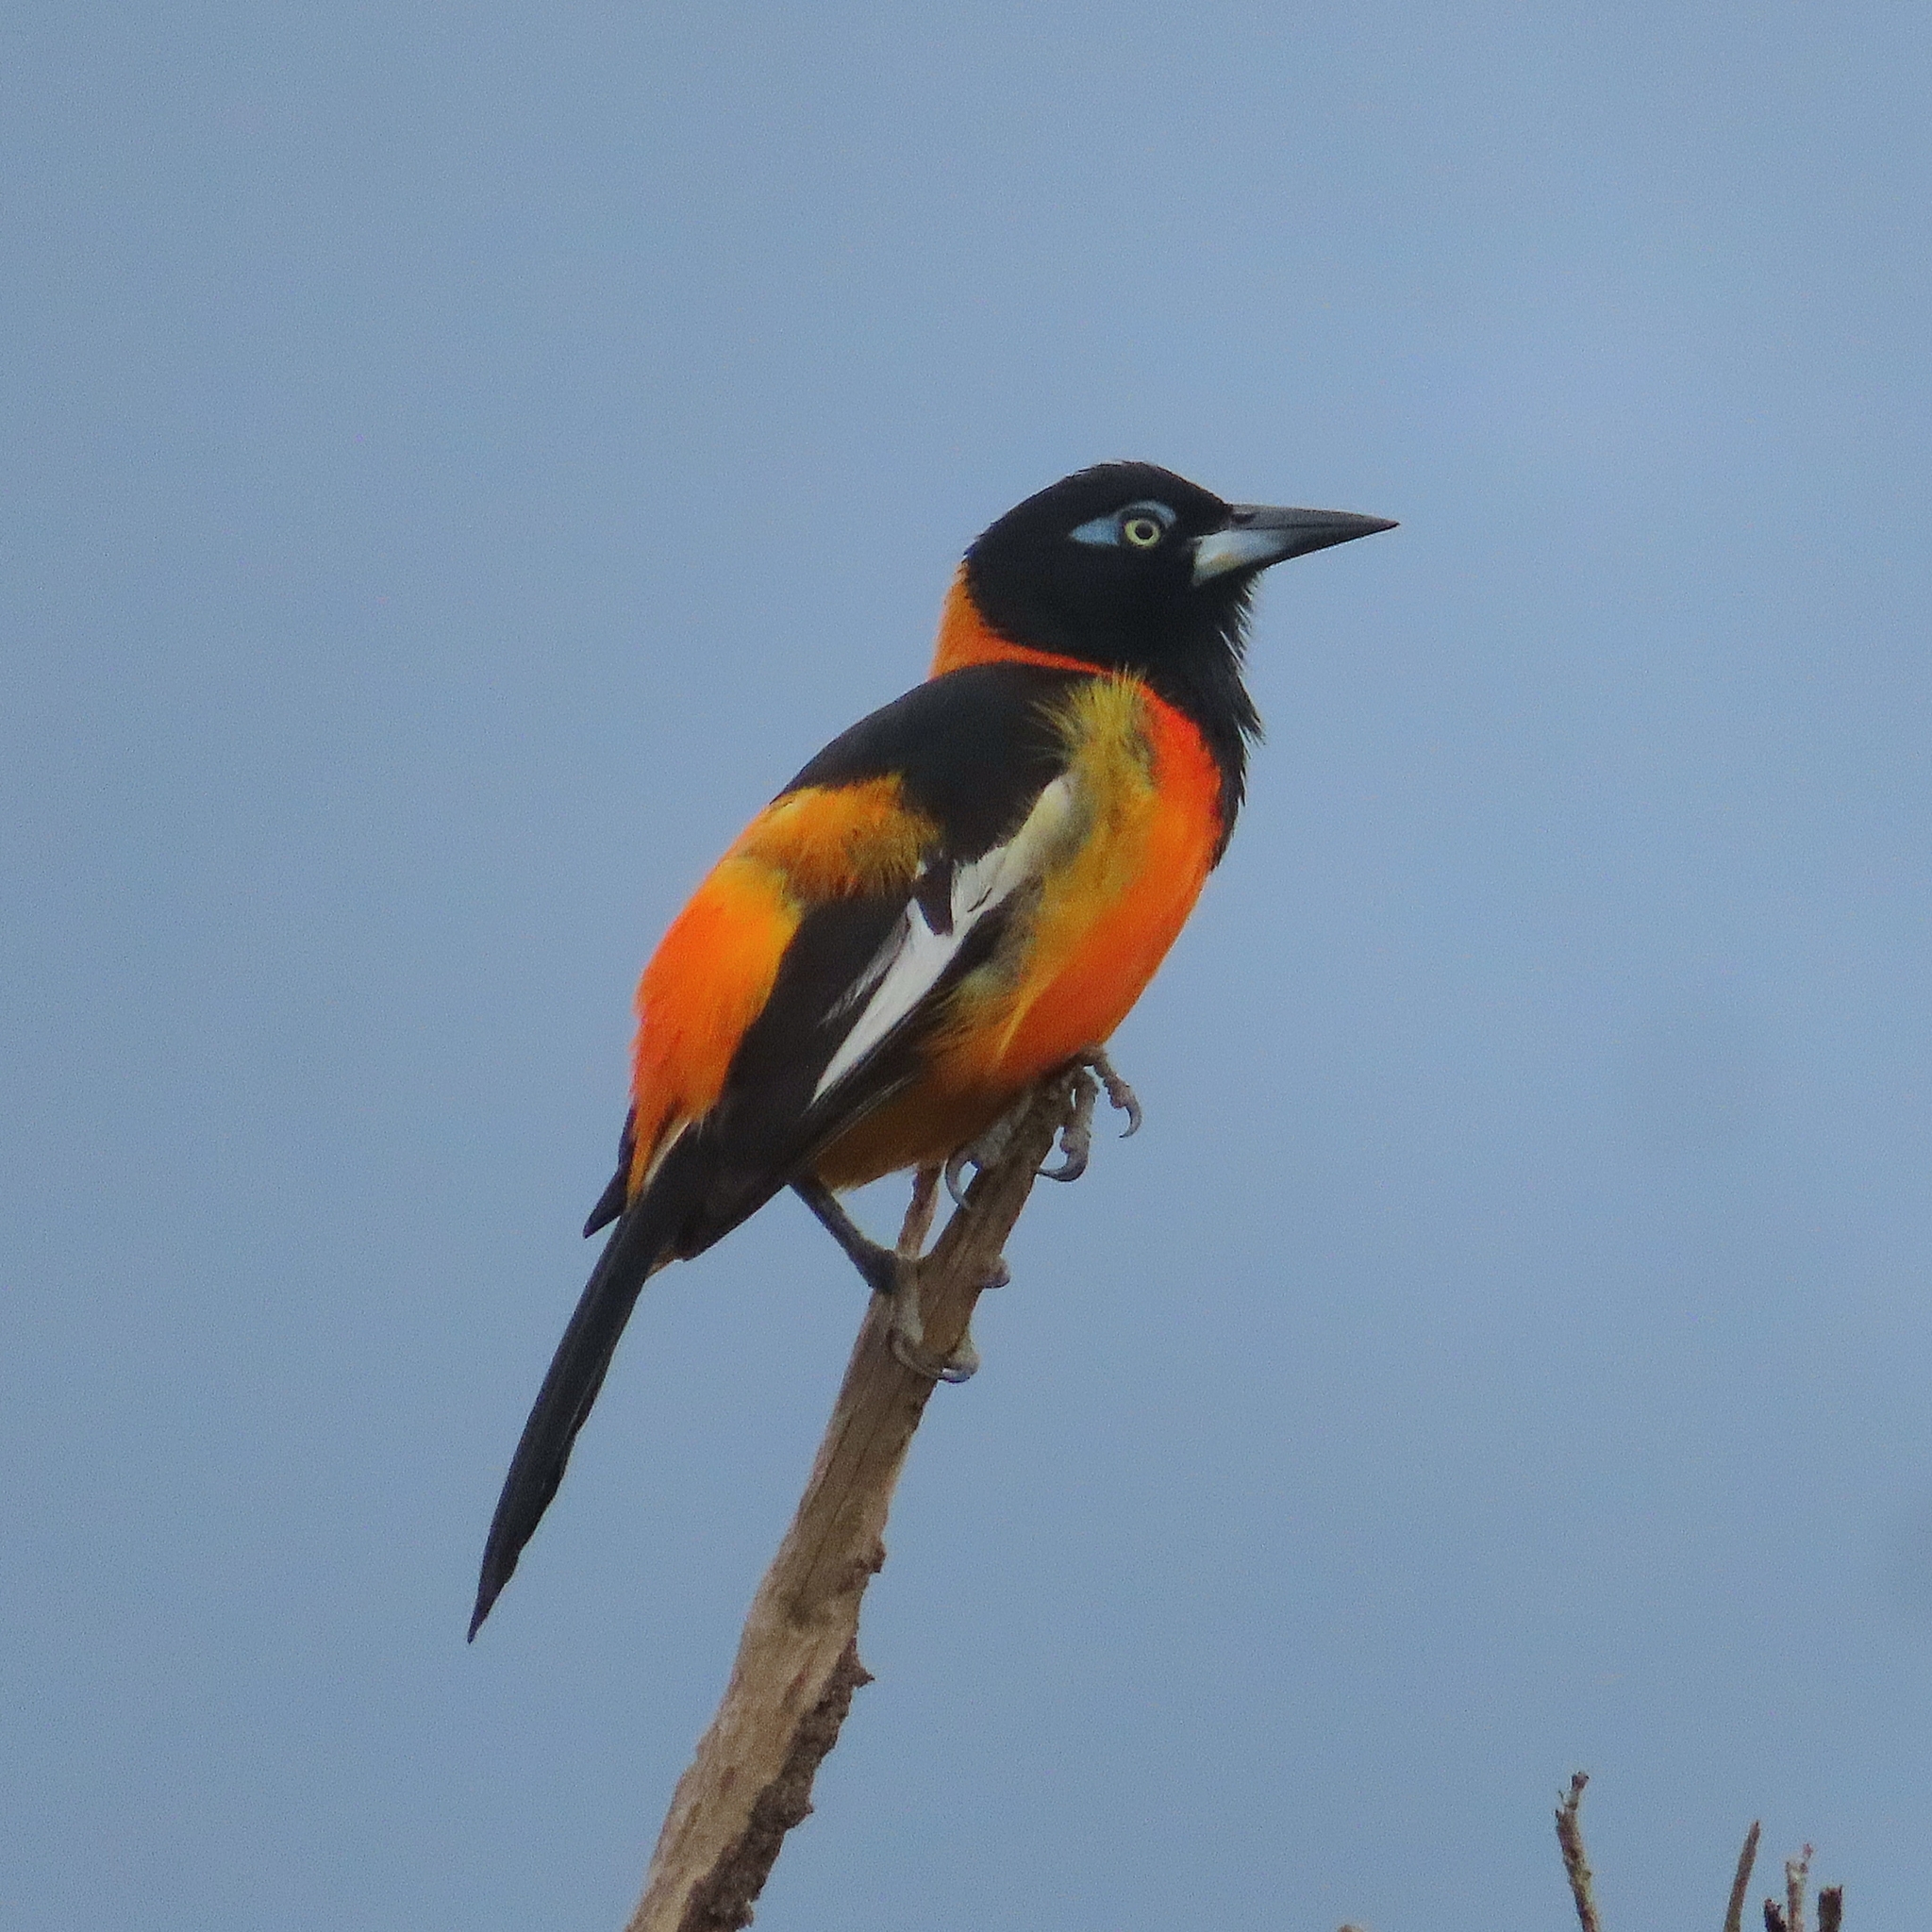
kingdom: Animalia
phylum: Chordata
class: Aves
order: Passeriformes
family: Icteridae
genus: Icterus
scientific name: Icterus icterus
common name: Venezuelan troupial
